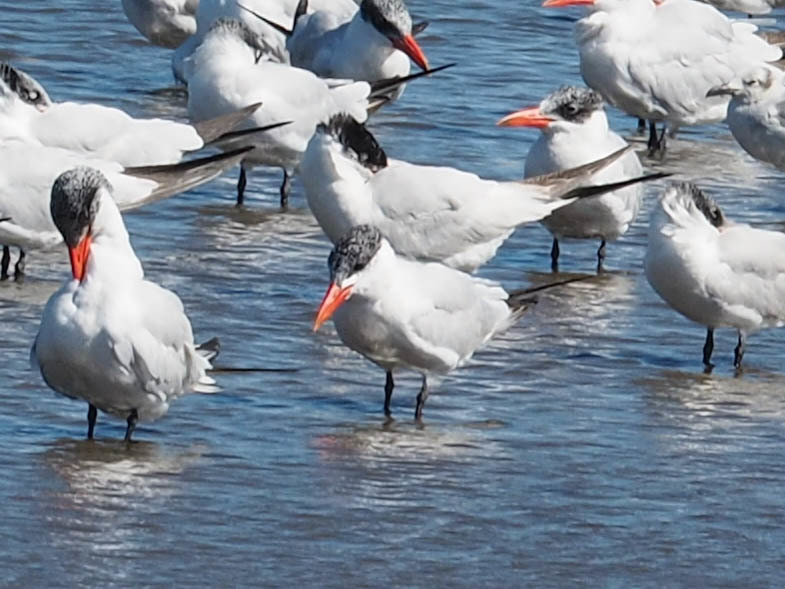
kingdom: Animalia
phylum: Chordata
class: Aves
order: Charadriiformes
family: Laridae
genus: Hydroprogne
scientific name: Hydroprogne caspia
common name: Caspian tern
